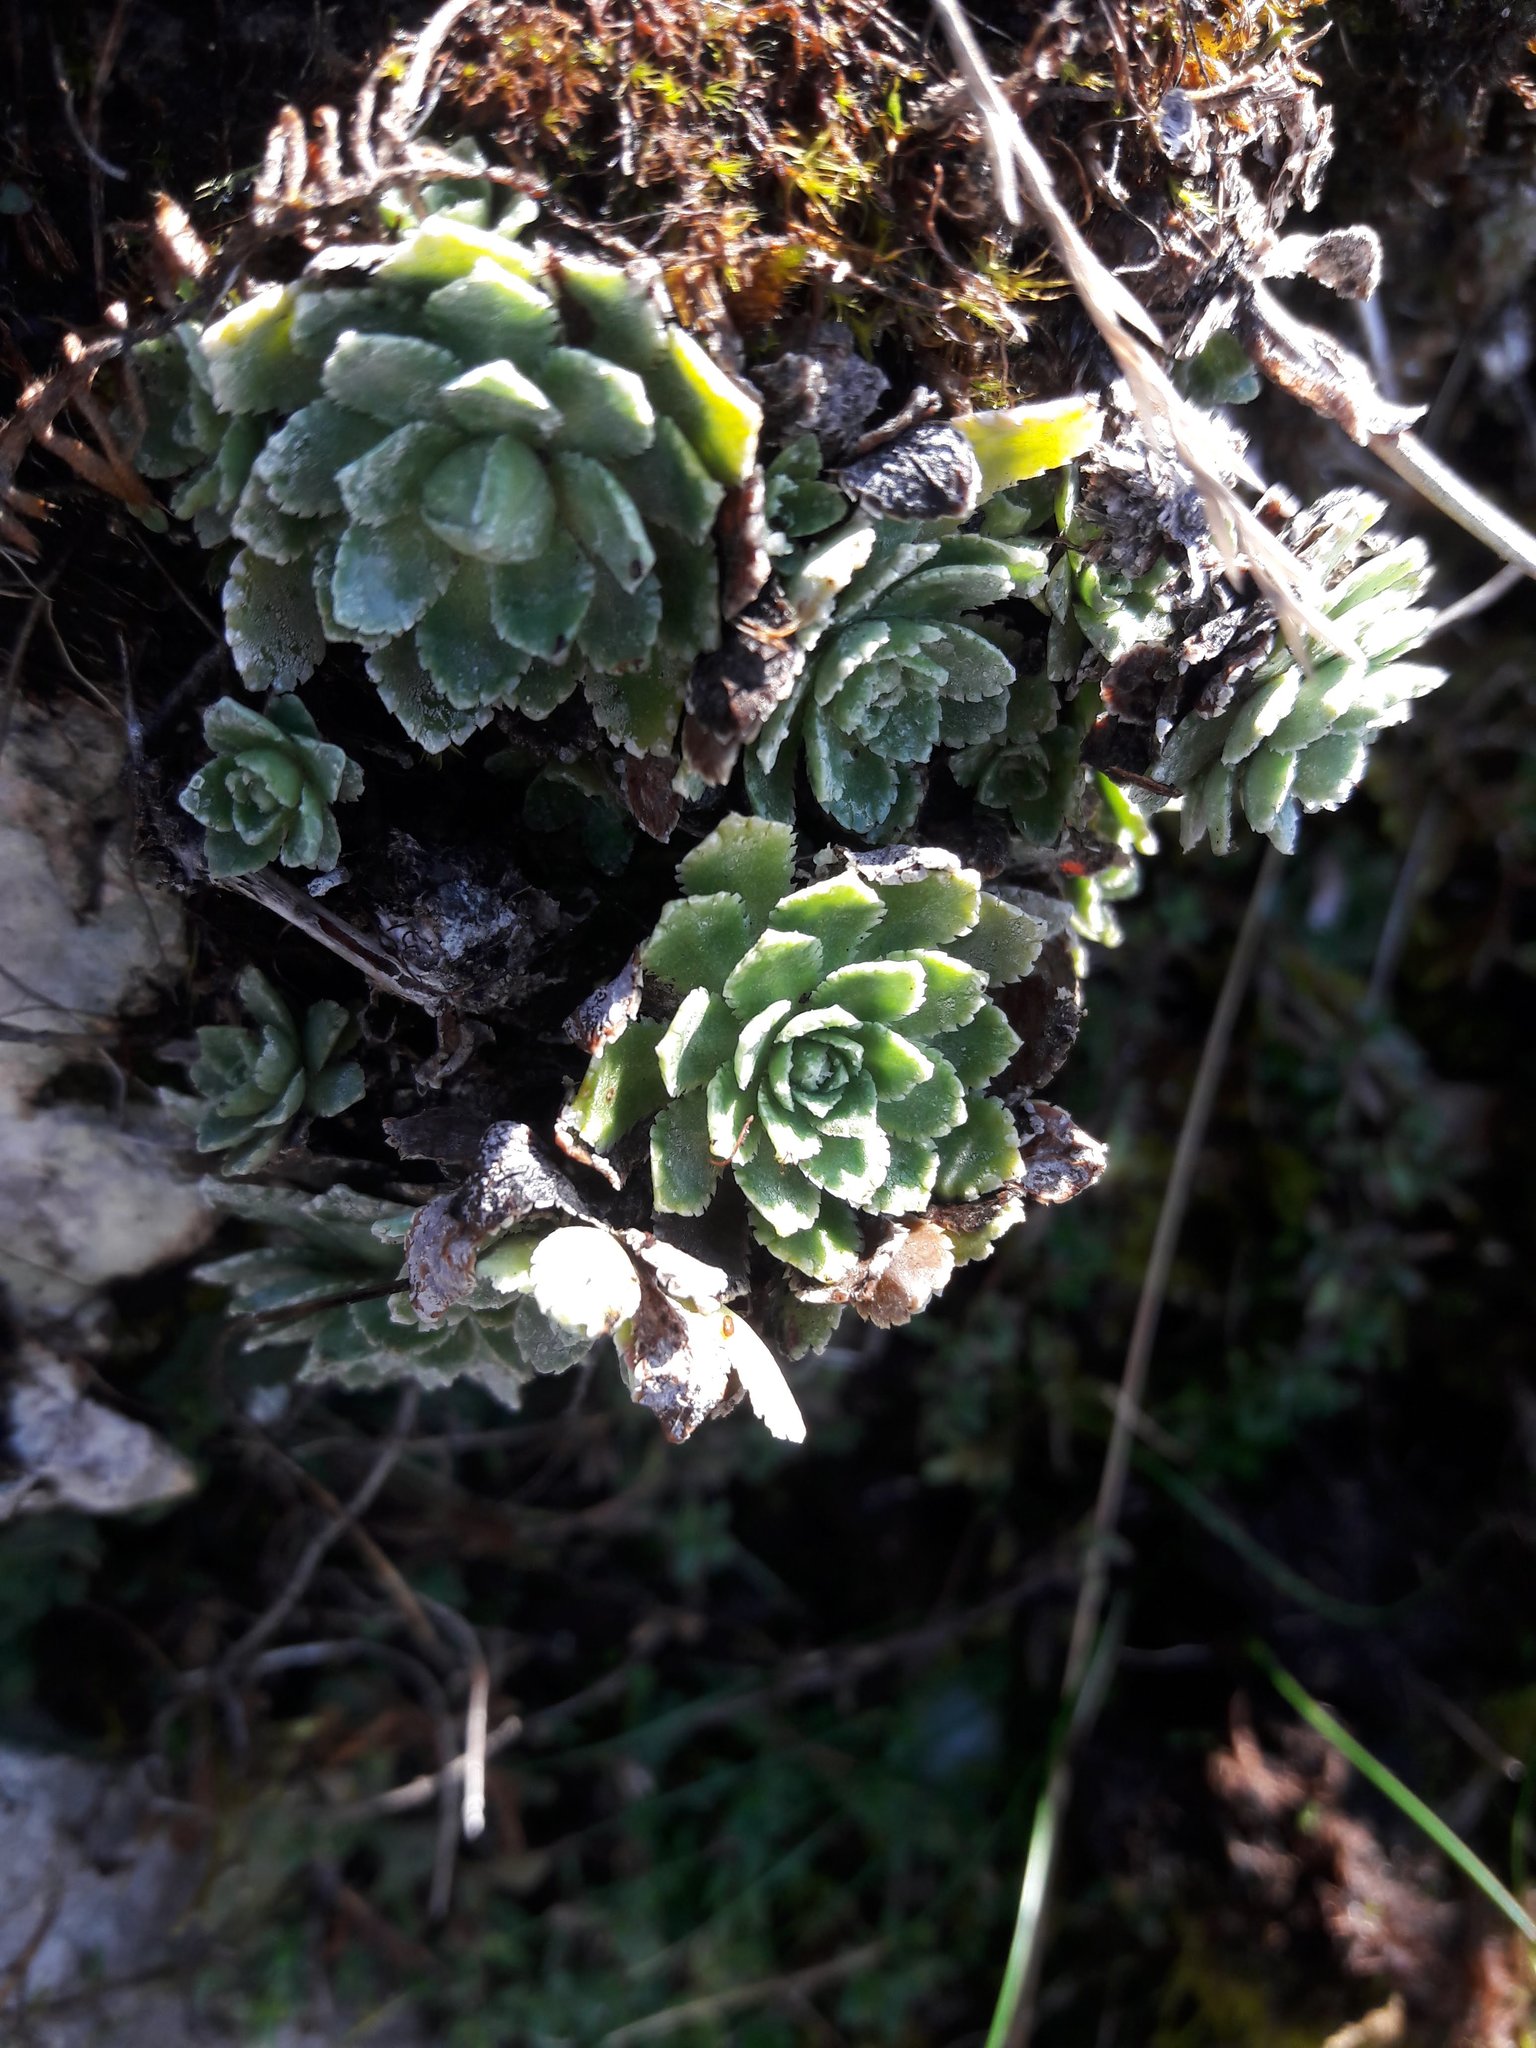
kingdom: Plantae
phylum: Tracheophyta
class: Magnoliopsida
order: Saxifragales
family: Saxifragaceae
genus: Saxifraga
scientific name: Saxifraga paniculata
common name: Livelong saxifrage
